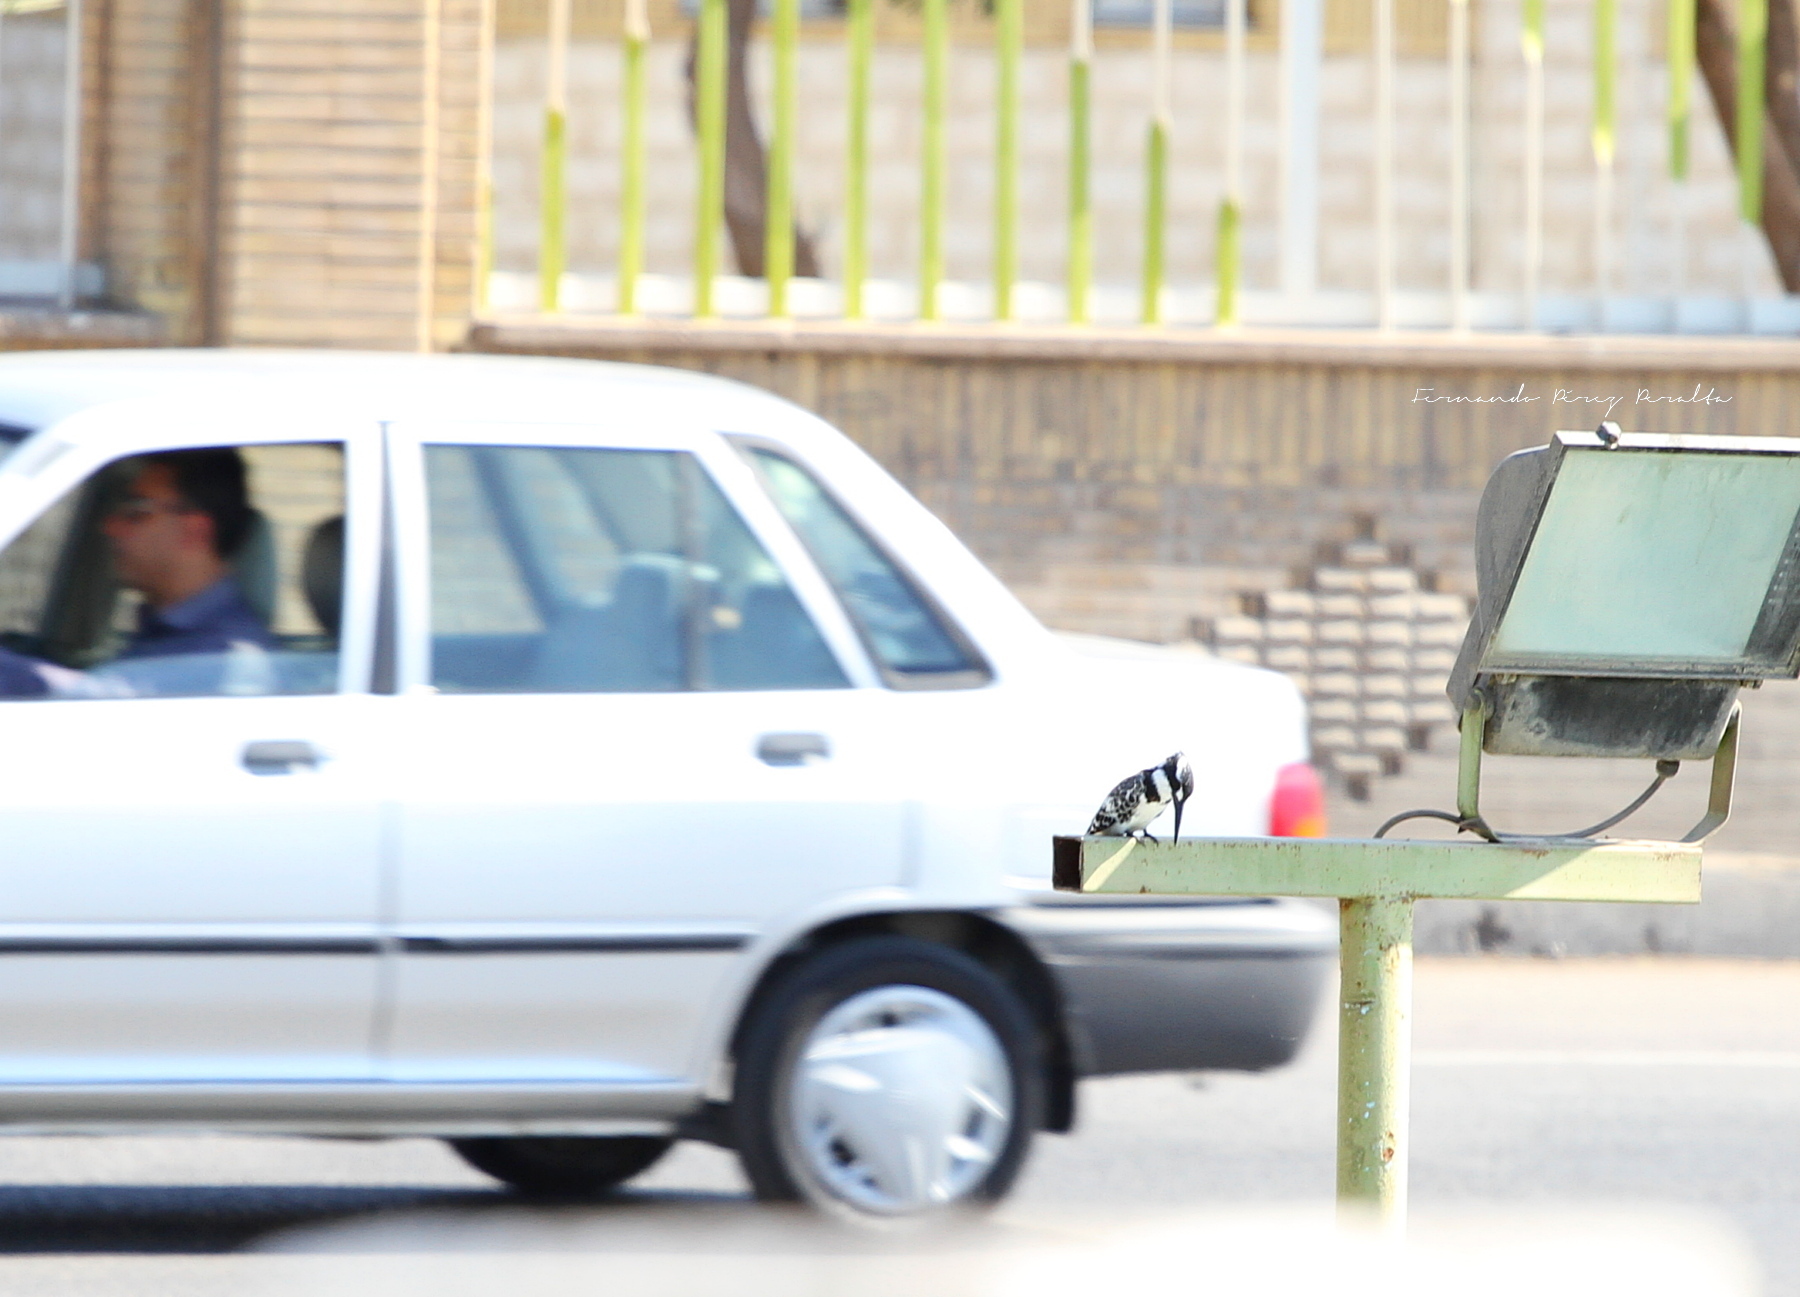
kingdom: Animalia
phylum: Chordata
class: Aves
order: Coraciiformes
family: Alcedinidae
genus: Ceryle
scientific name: Ceryle rudis
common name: Pied kingfisher
